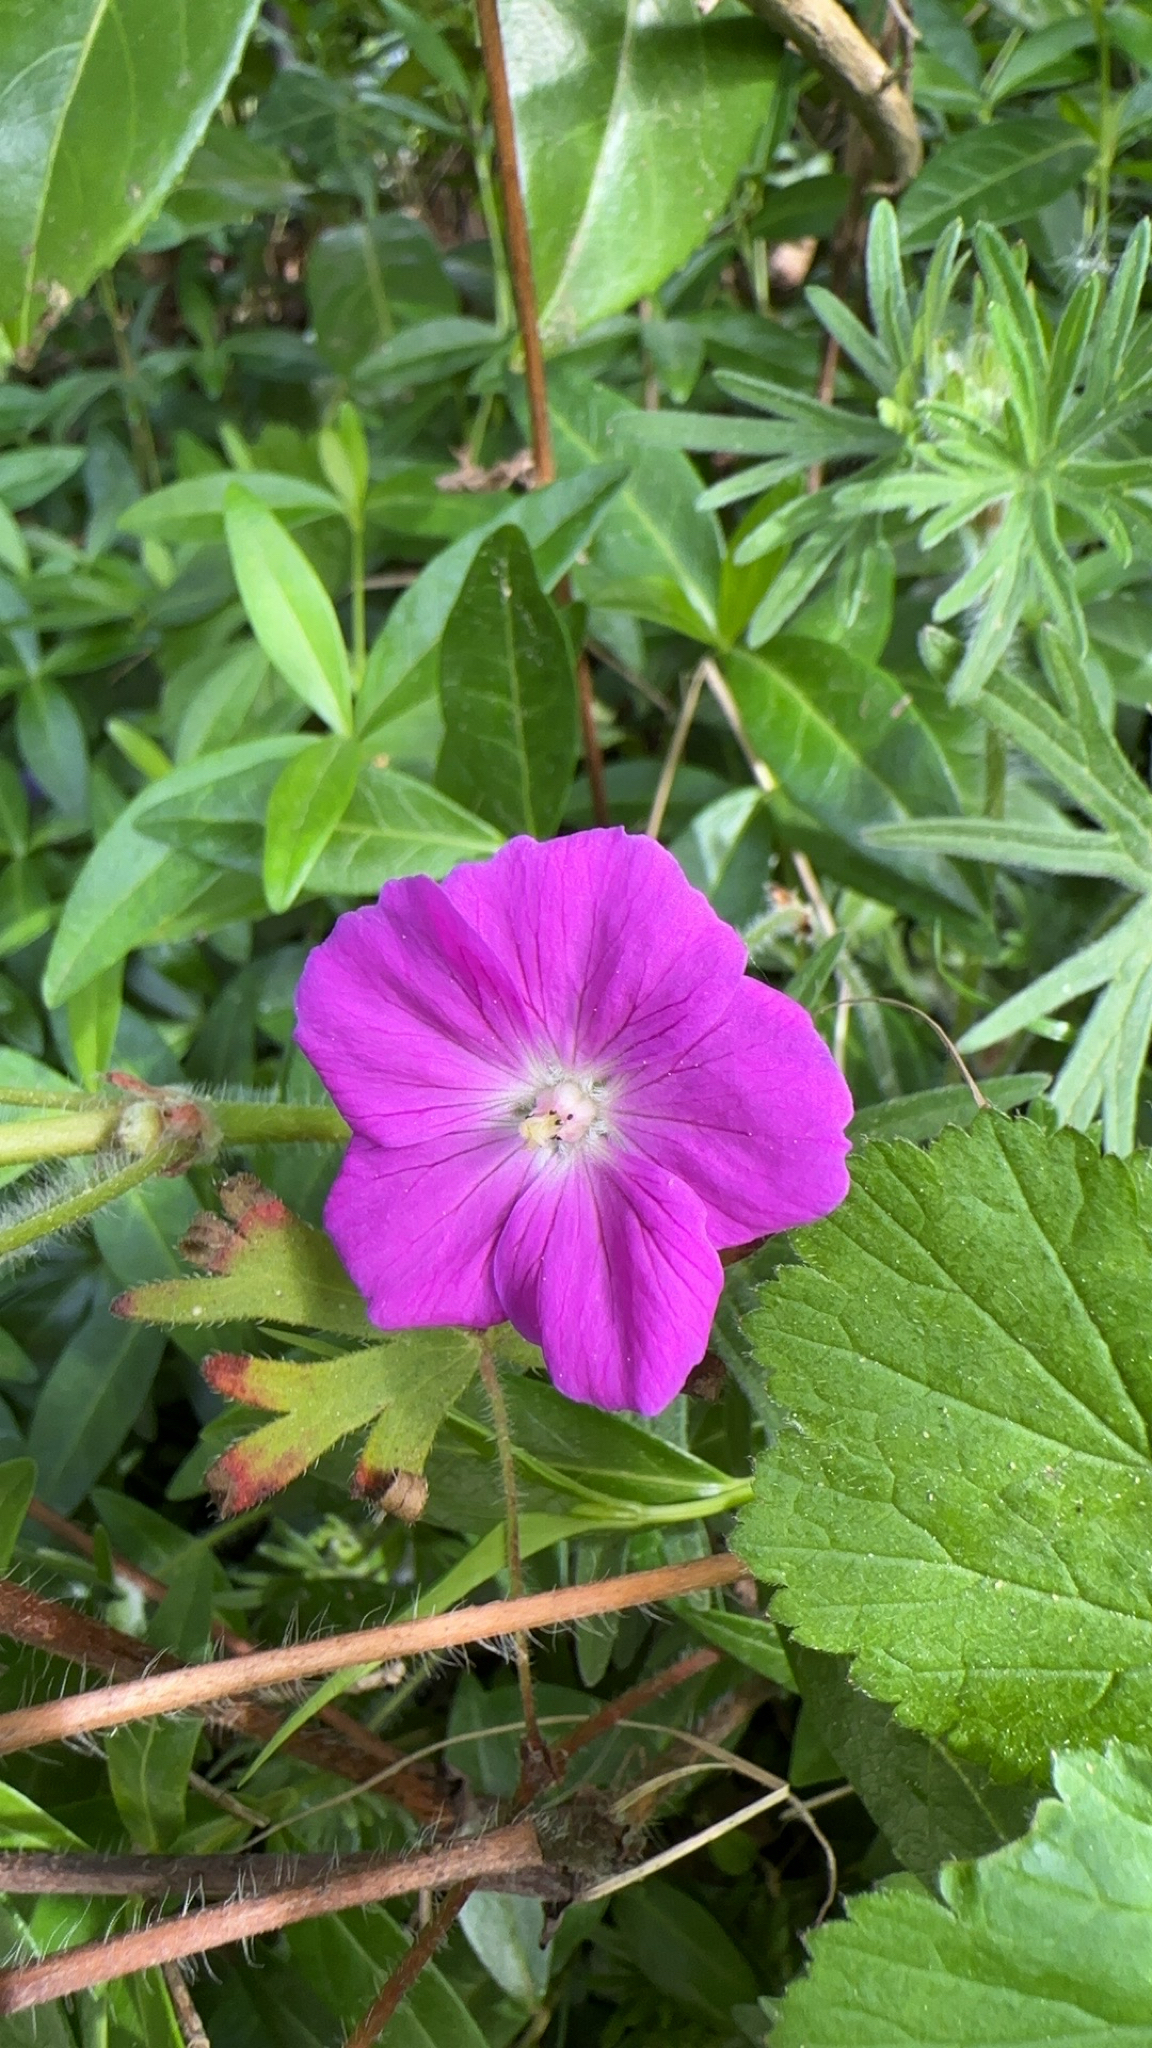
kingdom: Plantae
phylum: Tracheophyta
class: Magnoliopsida
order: Geraniales
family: Geraniaceae
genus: Geranium
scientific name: Geranium sanguineum
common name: Bloody crane's-bill
